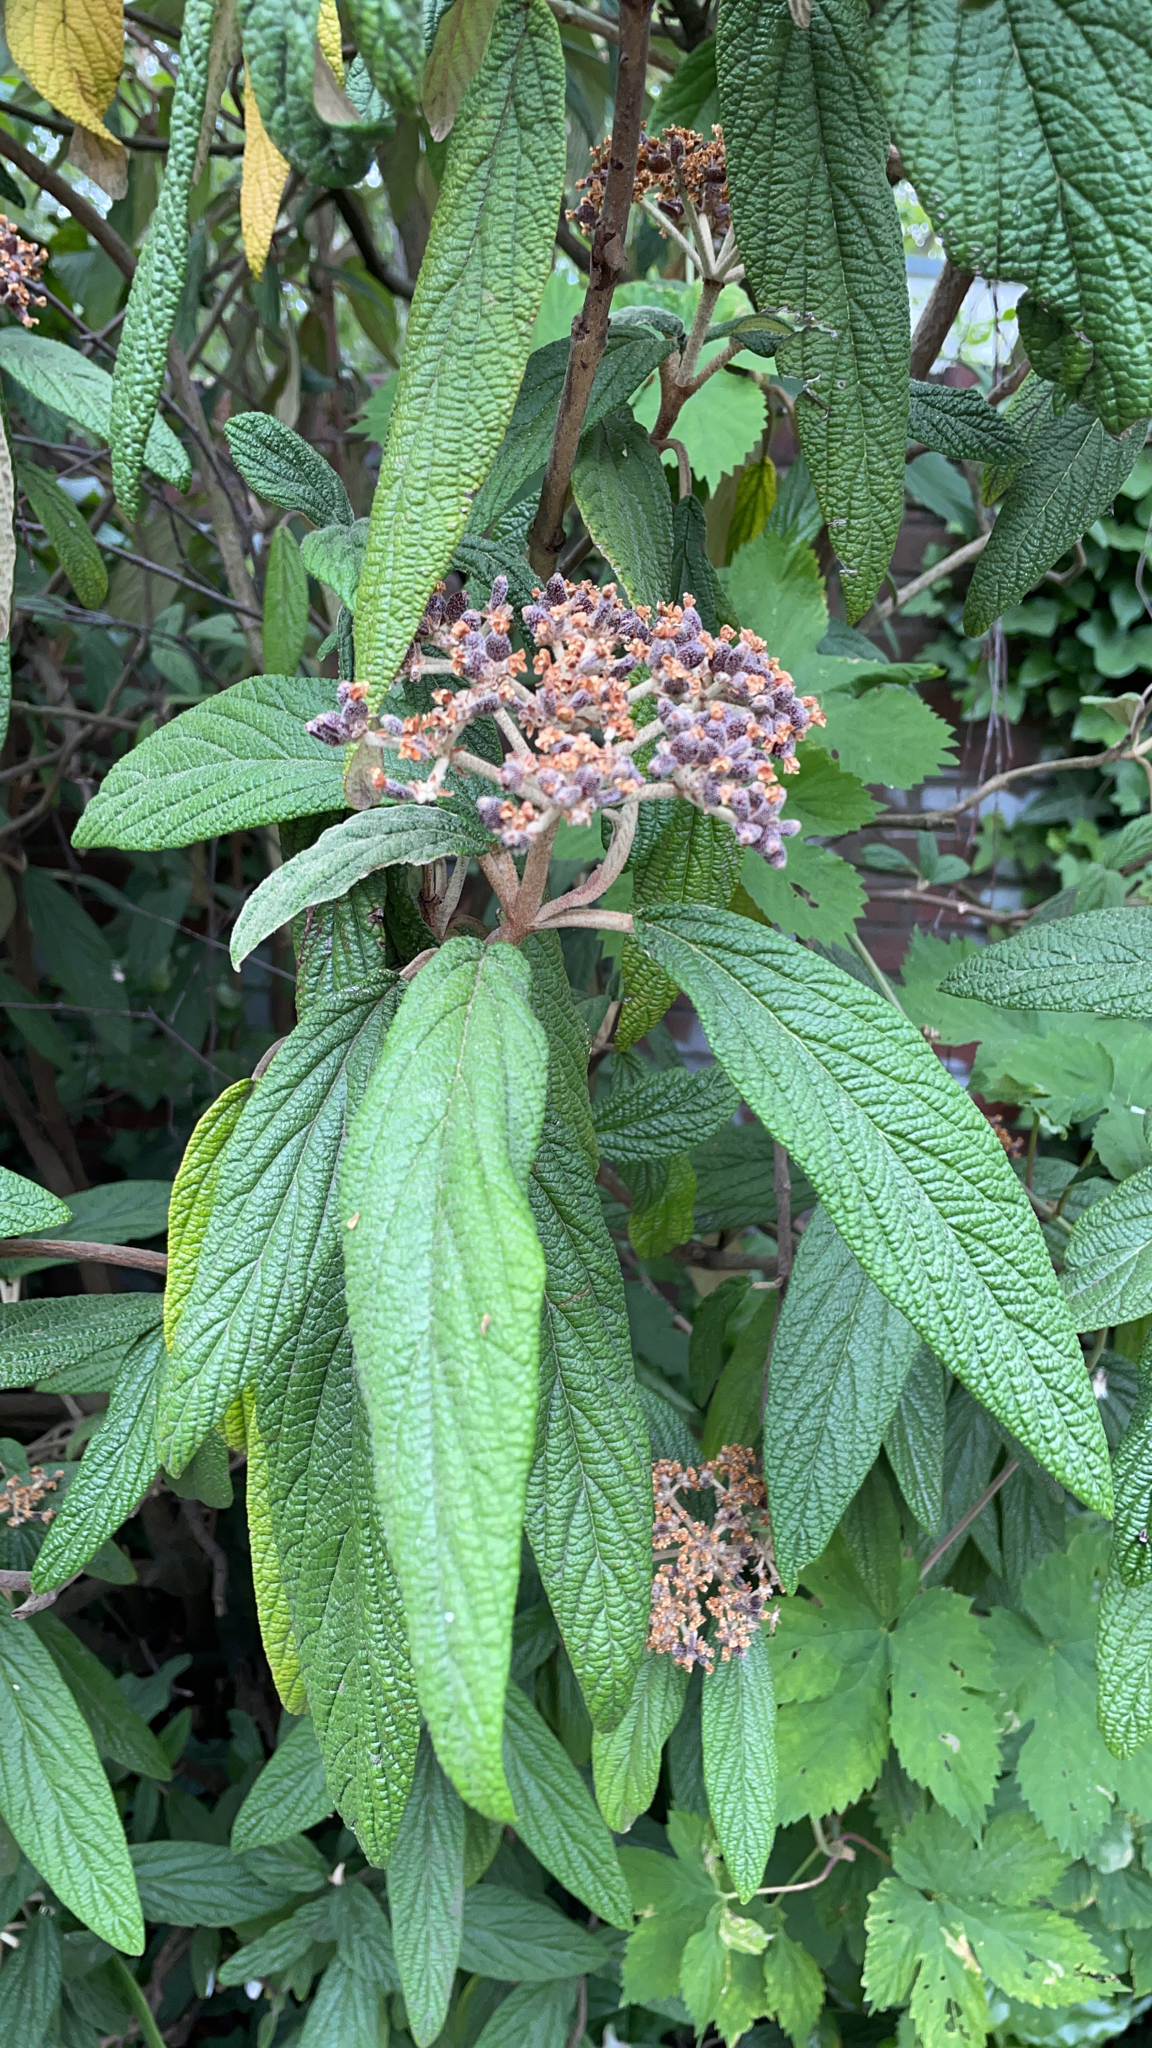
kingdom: Plantae
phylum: Tracheophyta
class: Magnoliopsida
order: Dipsacales
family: Viburnaceae
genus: Viburnum
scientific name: Viburnum rhytidophyllum
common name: Wrinkled viburnum
